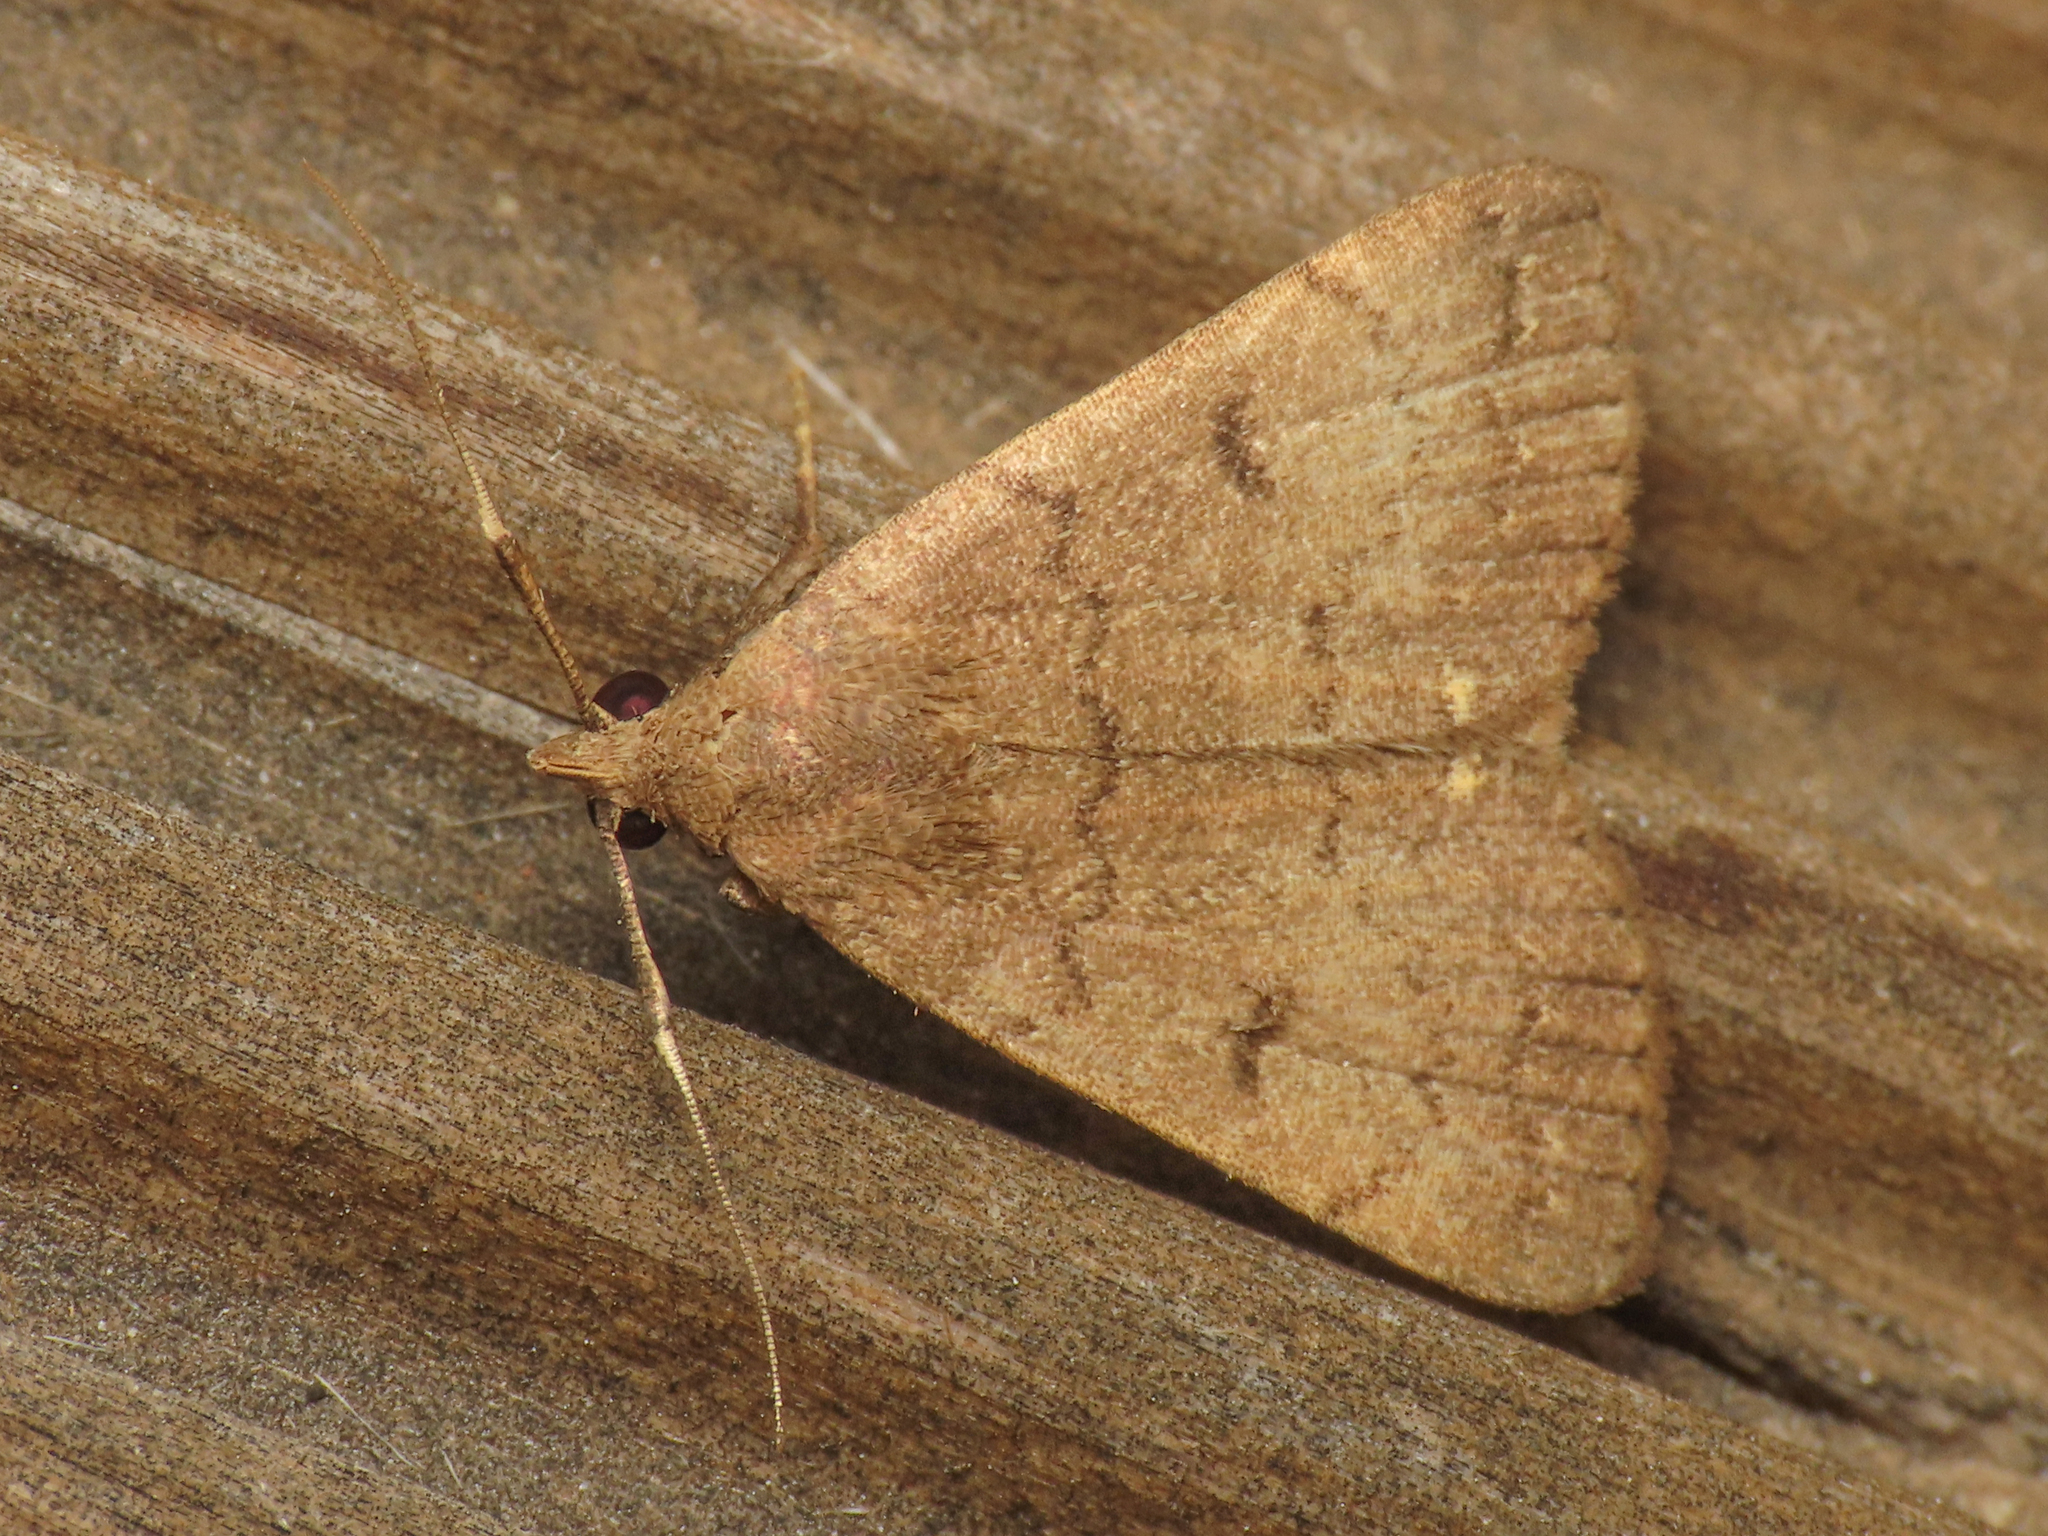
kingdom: Animalia
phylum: Arthropoda
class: Insecta
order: Lepidoptera
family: Erebidae
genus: Nodaria
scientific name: Nodaria nodosalis
